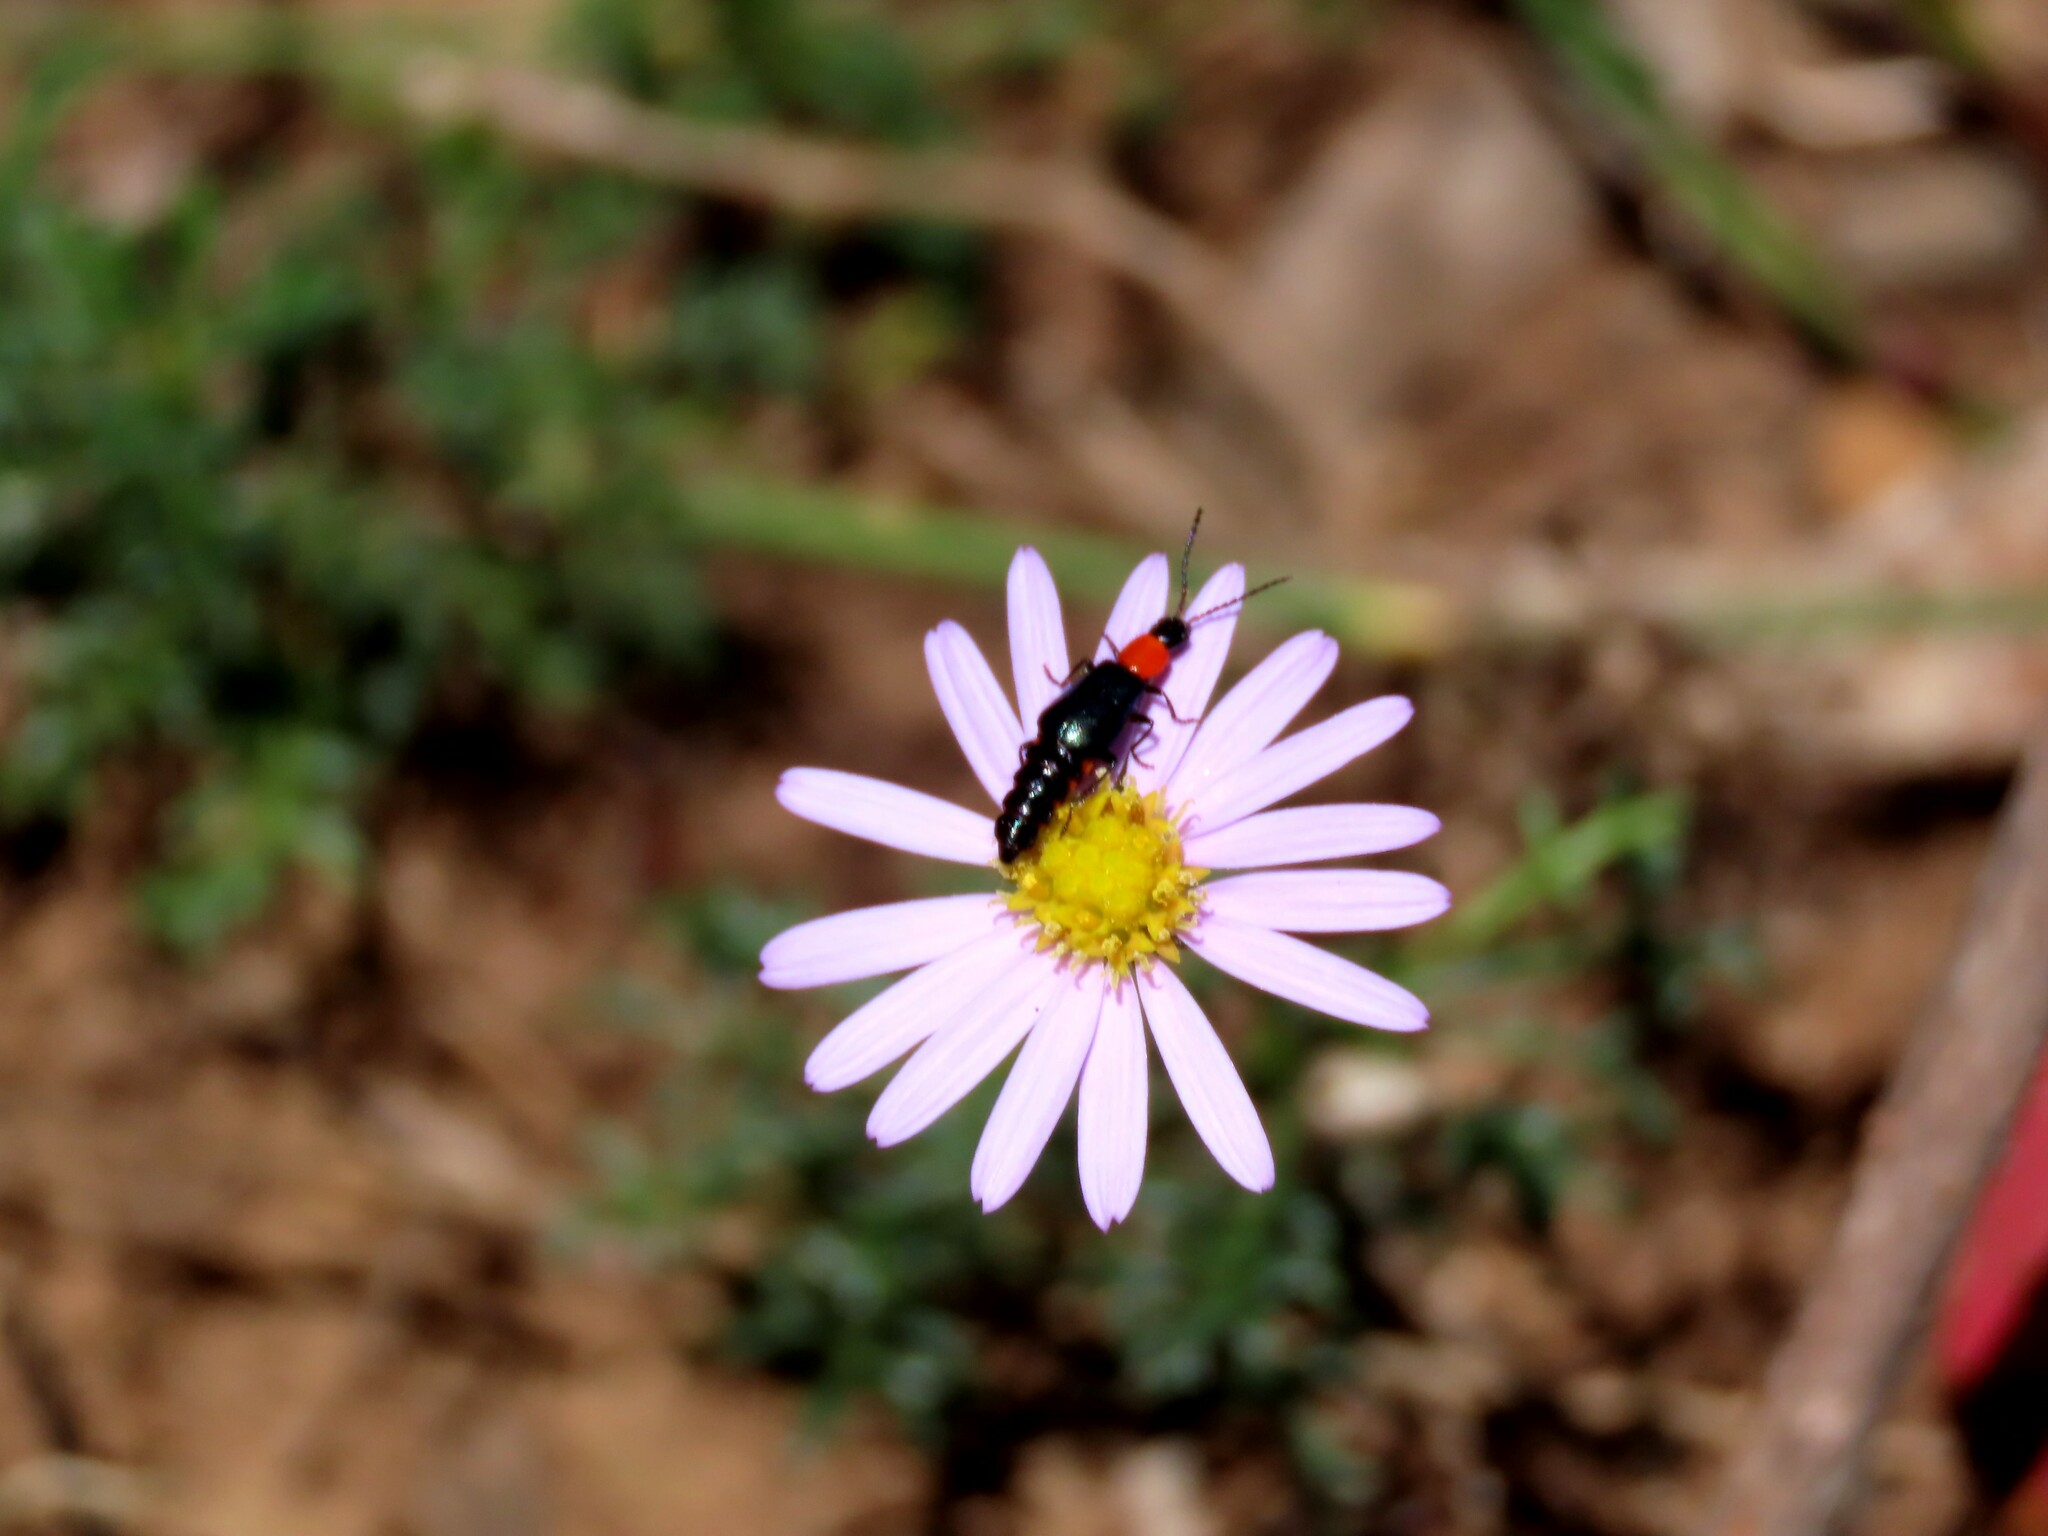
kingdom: Animalia
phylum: Arthropoda
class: Insecta
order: Coleoptera
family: Melyridae
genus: Carphurus
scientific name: Carphurus
